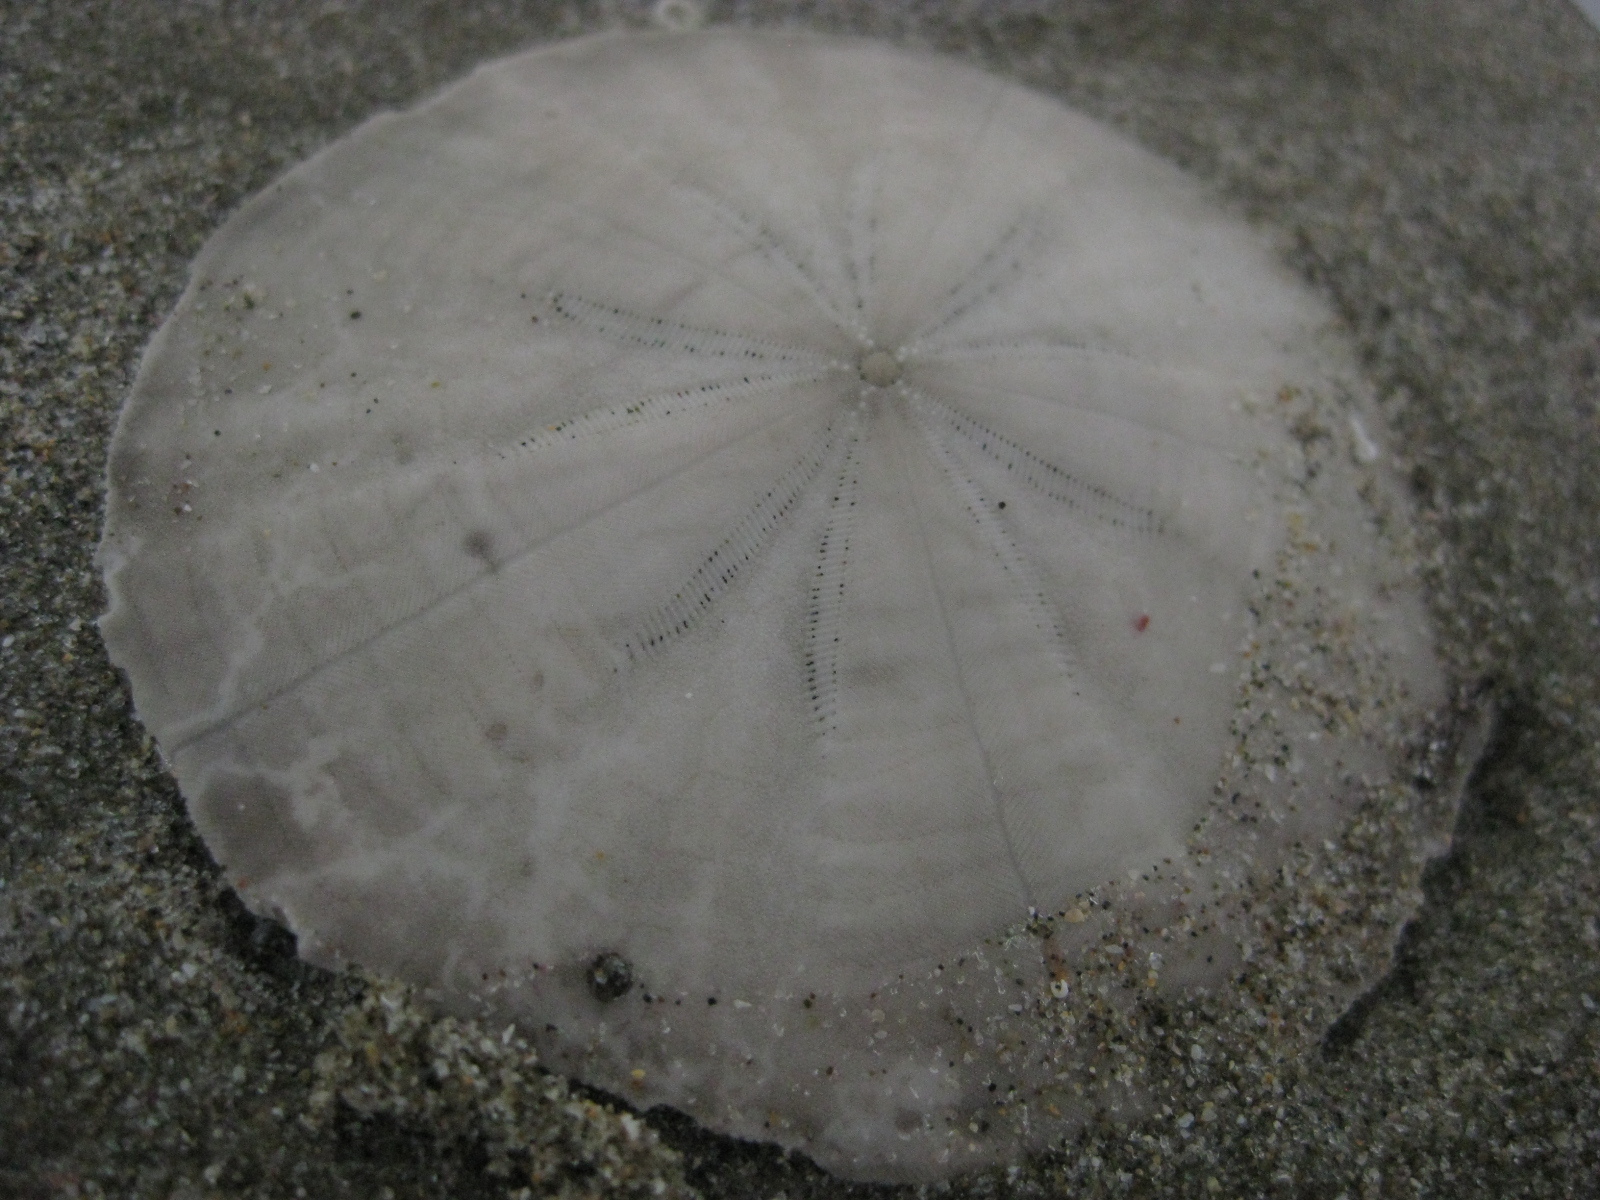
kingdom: Animalia
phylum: Echinodermata
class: Echinoidea
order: Clypeasteroida
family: Clypeasteridae
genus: Fellaster
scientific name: Fellaster zelandiae
